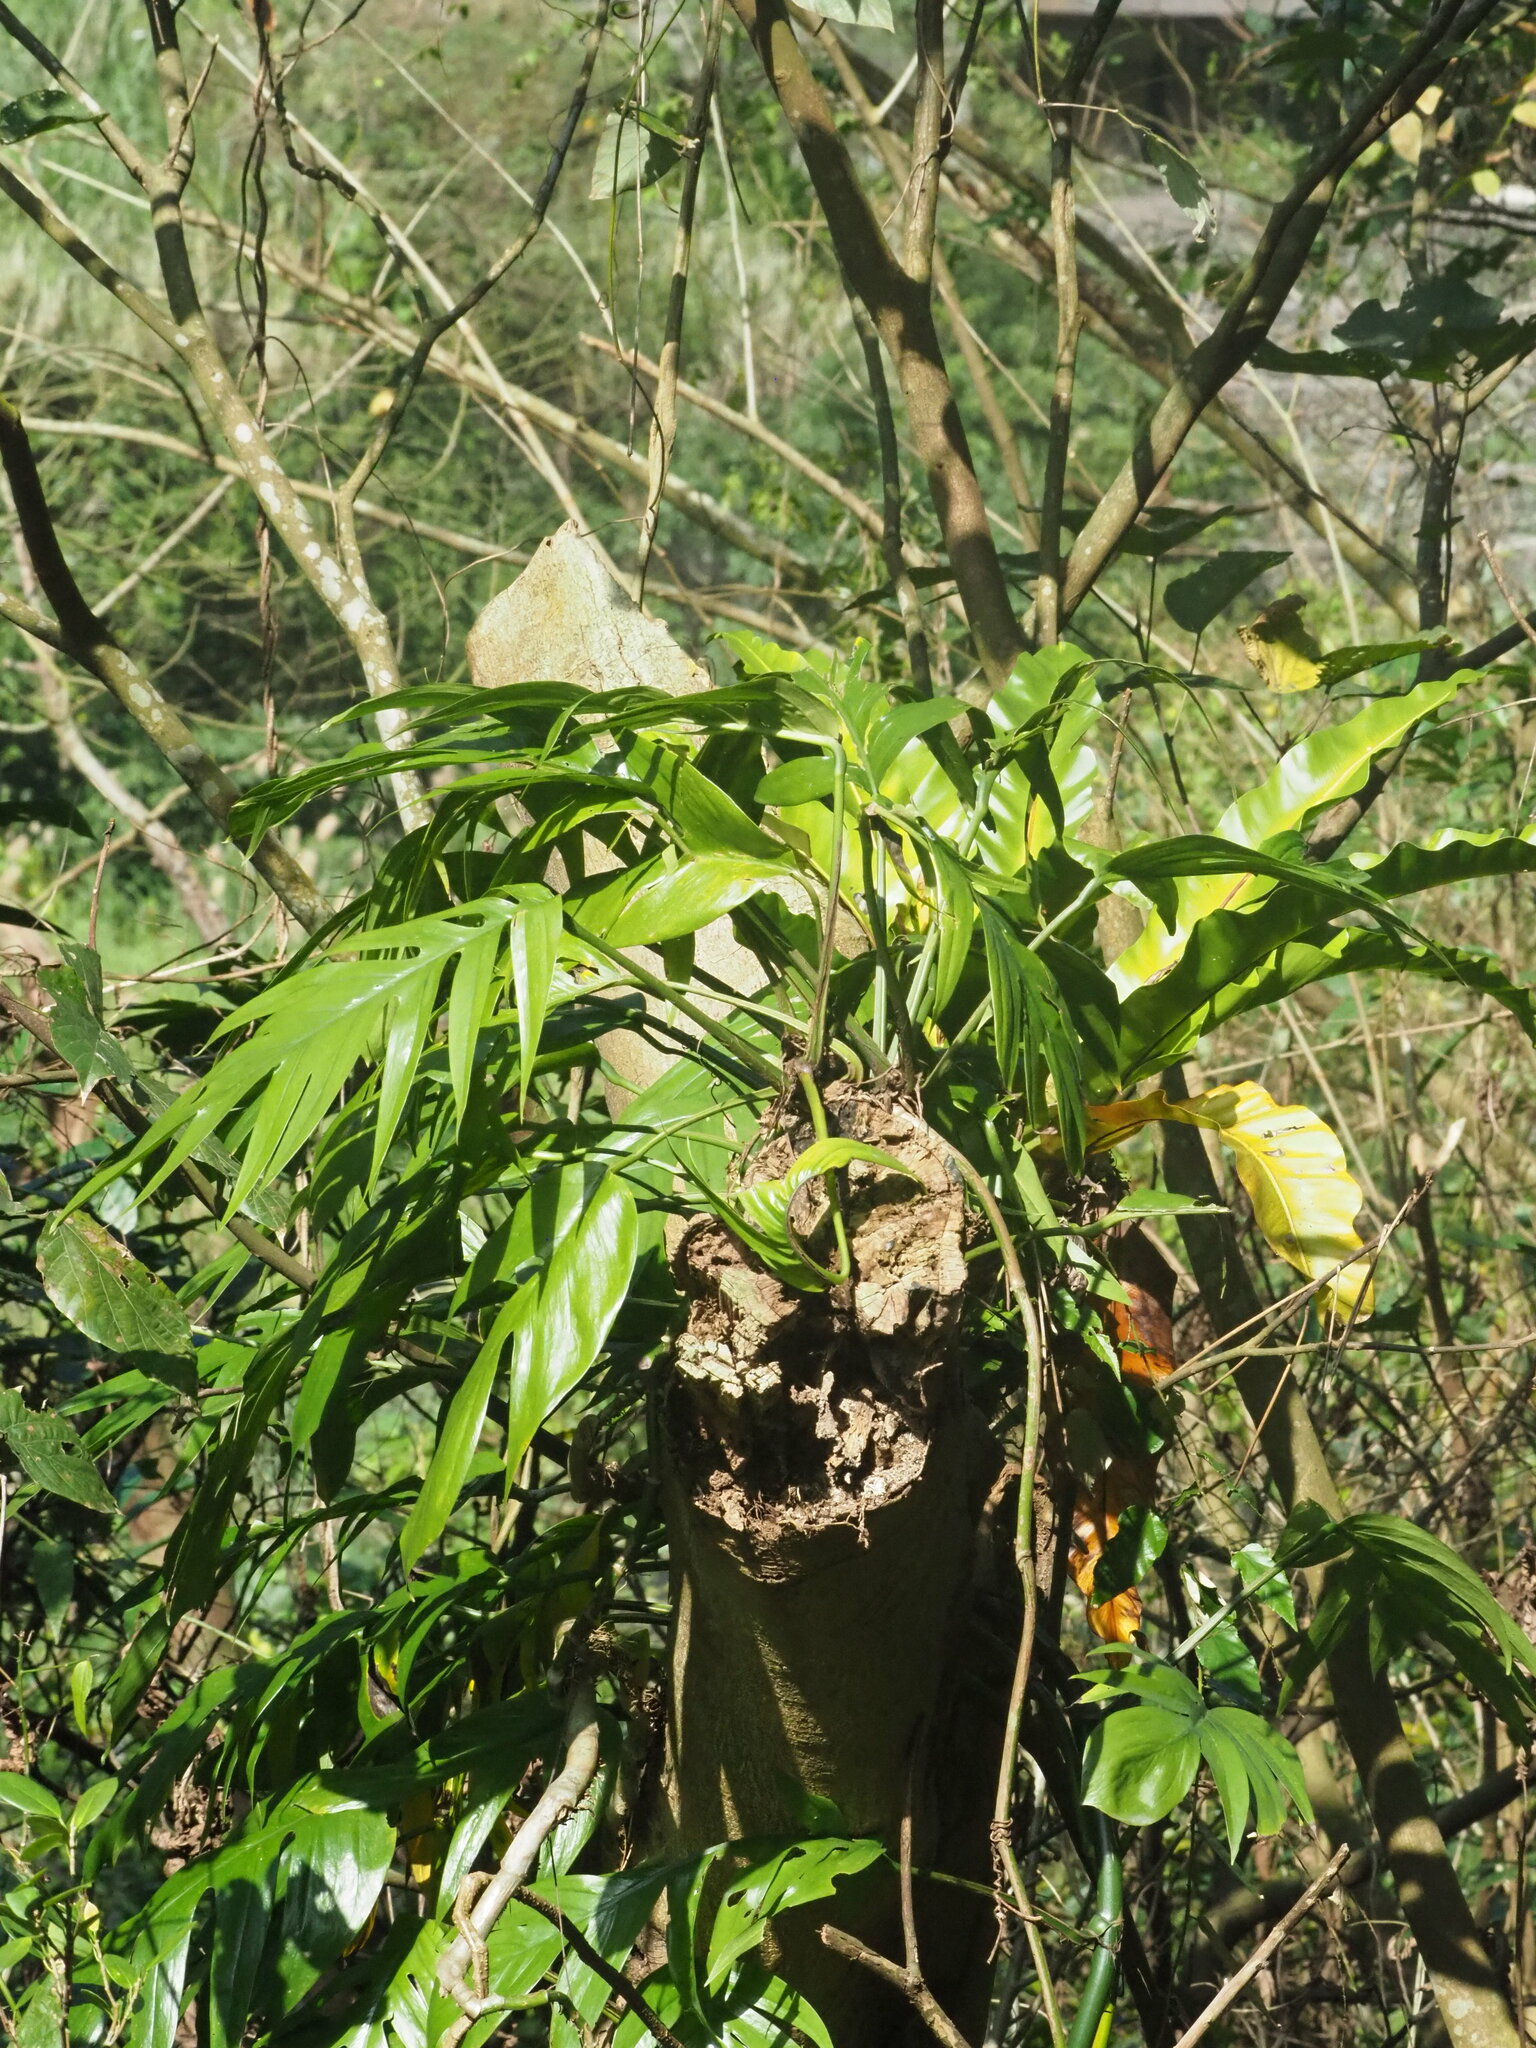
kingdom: Plantae
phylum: Tracheophyta
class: Liliopsida
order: Alismatales
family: Araceae
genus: Epipremnum
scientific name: Epipremnum pinnatum
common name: Centipede tongavine
